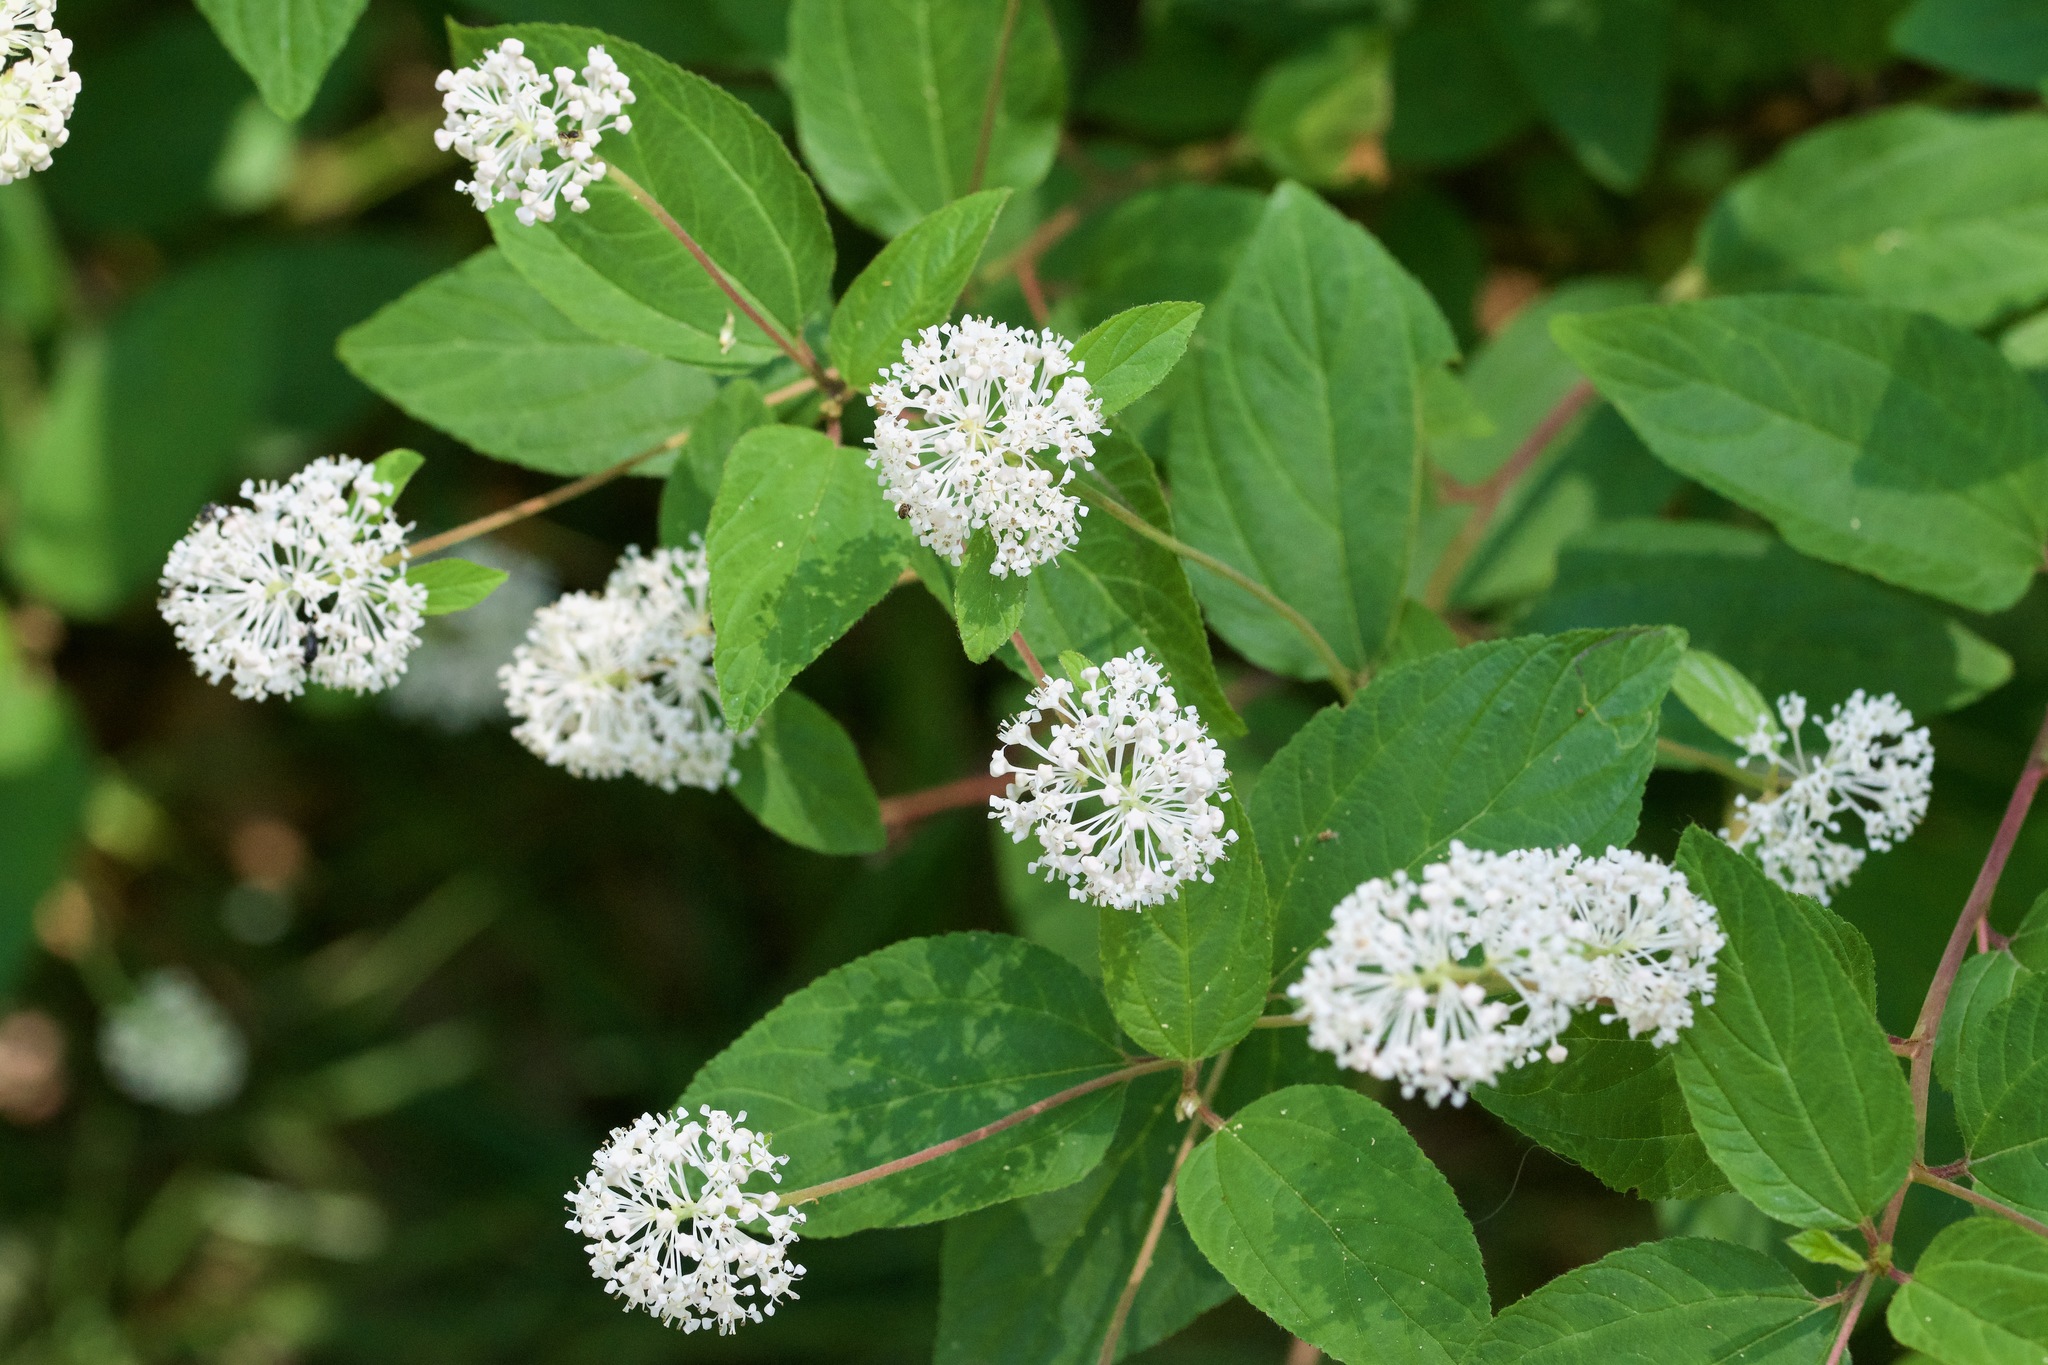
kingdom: Plantae
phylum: Tracheophyta
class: Magnoliopsida
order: Rosales
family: Rhamnaceae
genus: Ceanothus
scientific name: Ceanothus americanus
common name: Redroot
